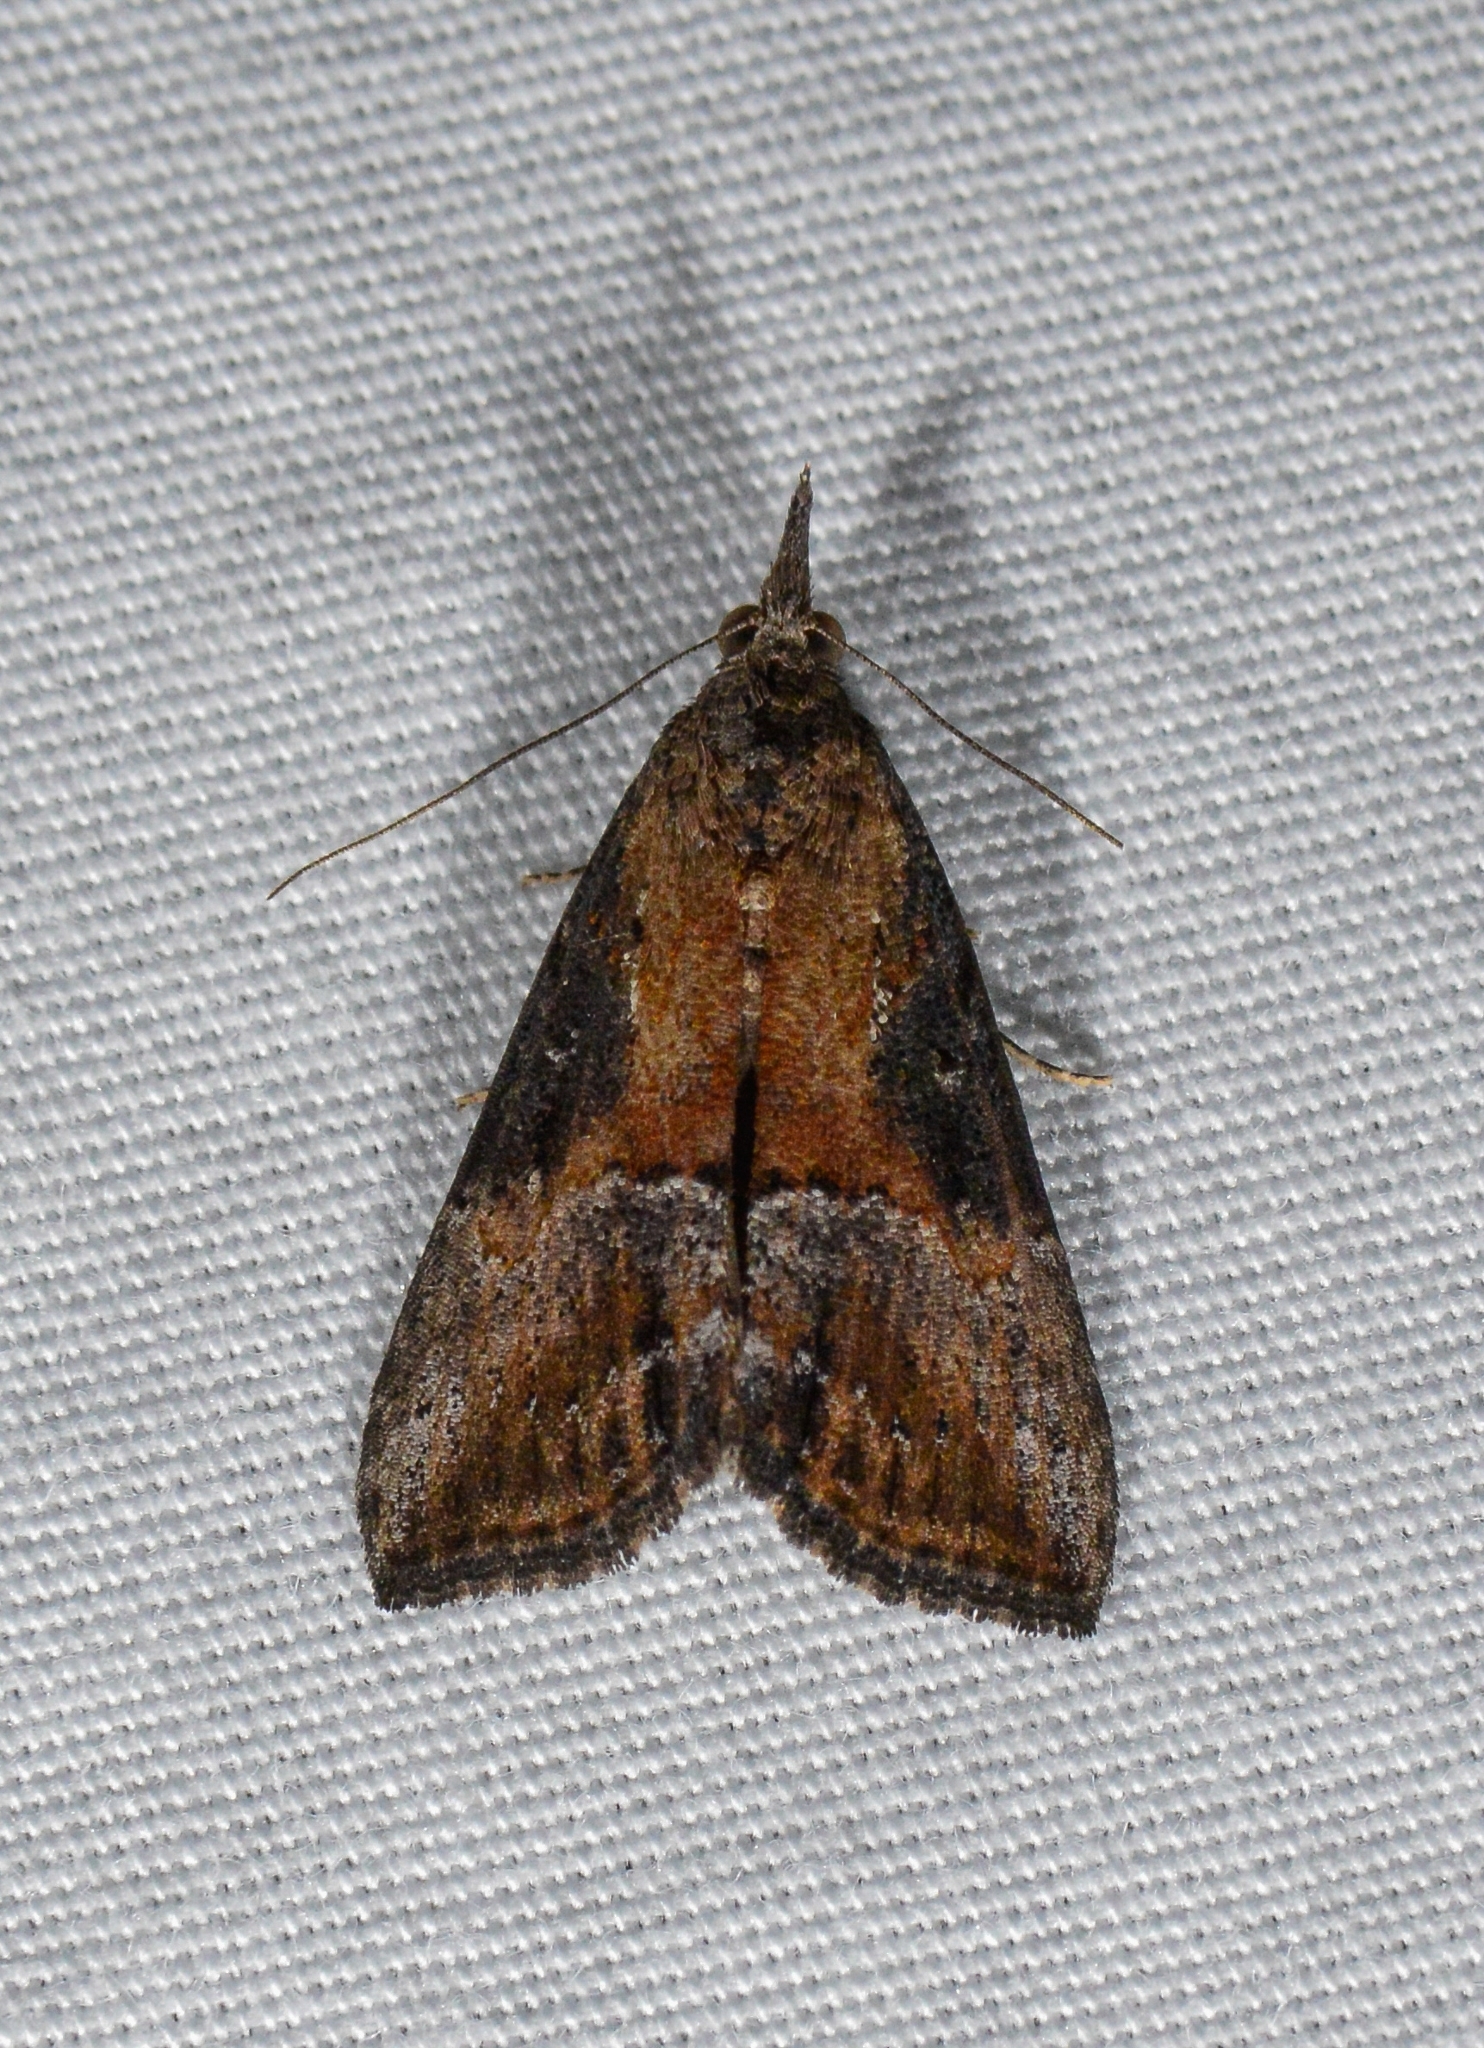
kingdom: Animalia
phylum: Arthropoda
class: Insecta
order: Lepidoptera
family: Erebidae
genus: Hypena
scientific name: Hypena scabra
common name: Green cloverworm
